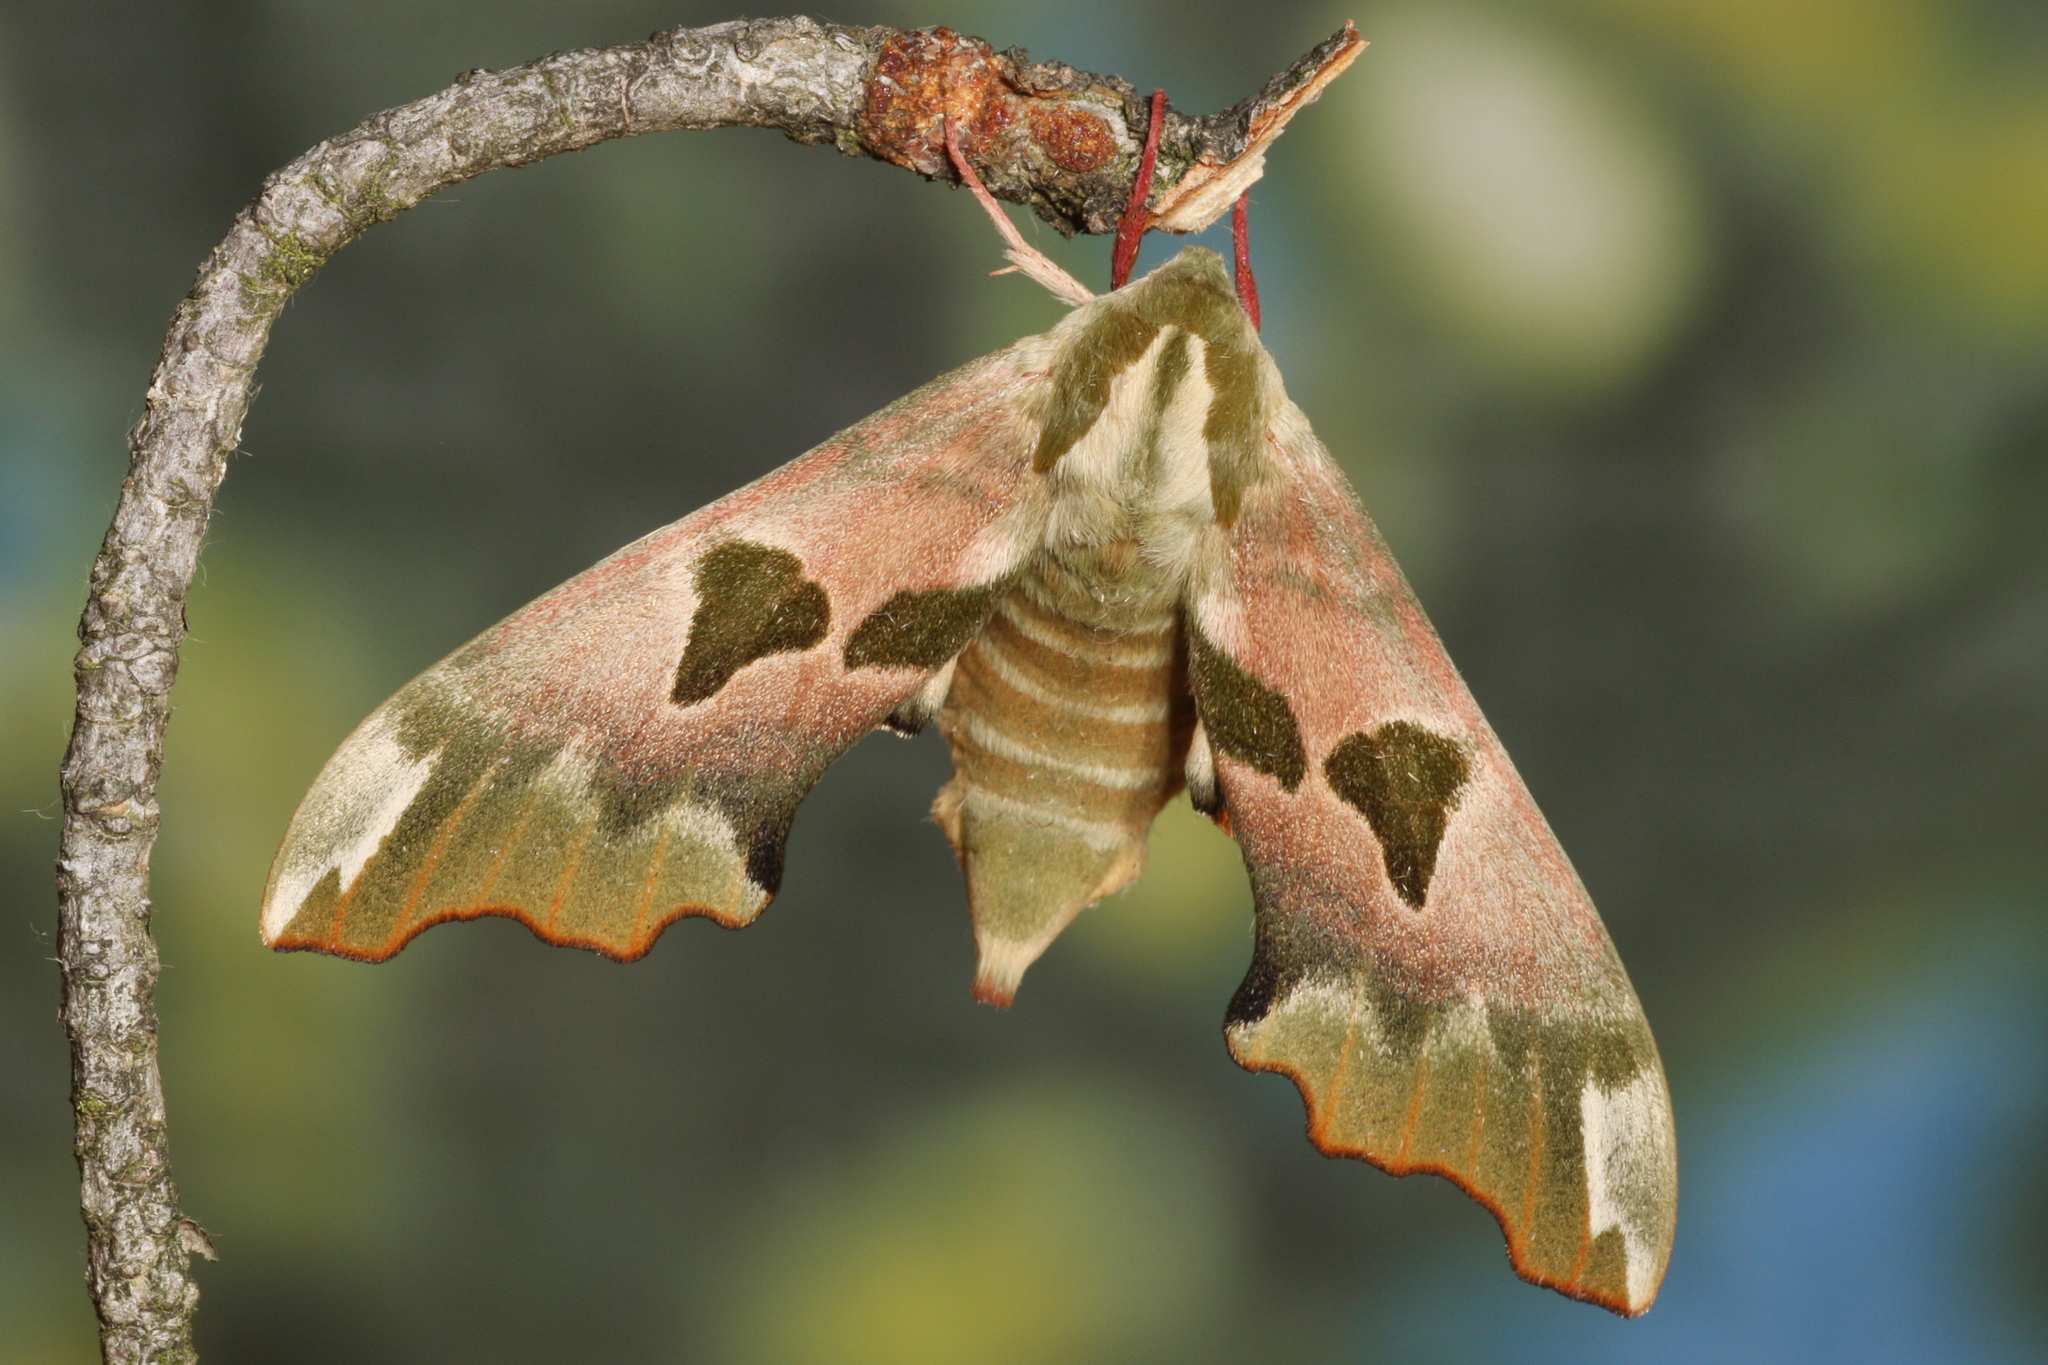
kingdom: Animalia
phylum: Arthropoda
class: Insecta
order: Lepidoptera
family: Sphingidae
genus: Mimas
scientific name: Mimas tiliae
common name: Lime hawk-moth
